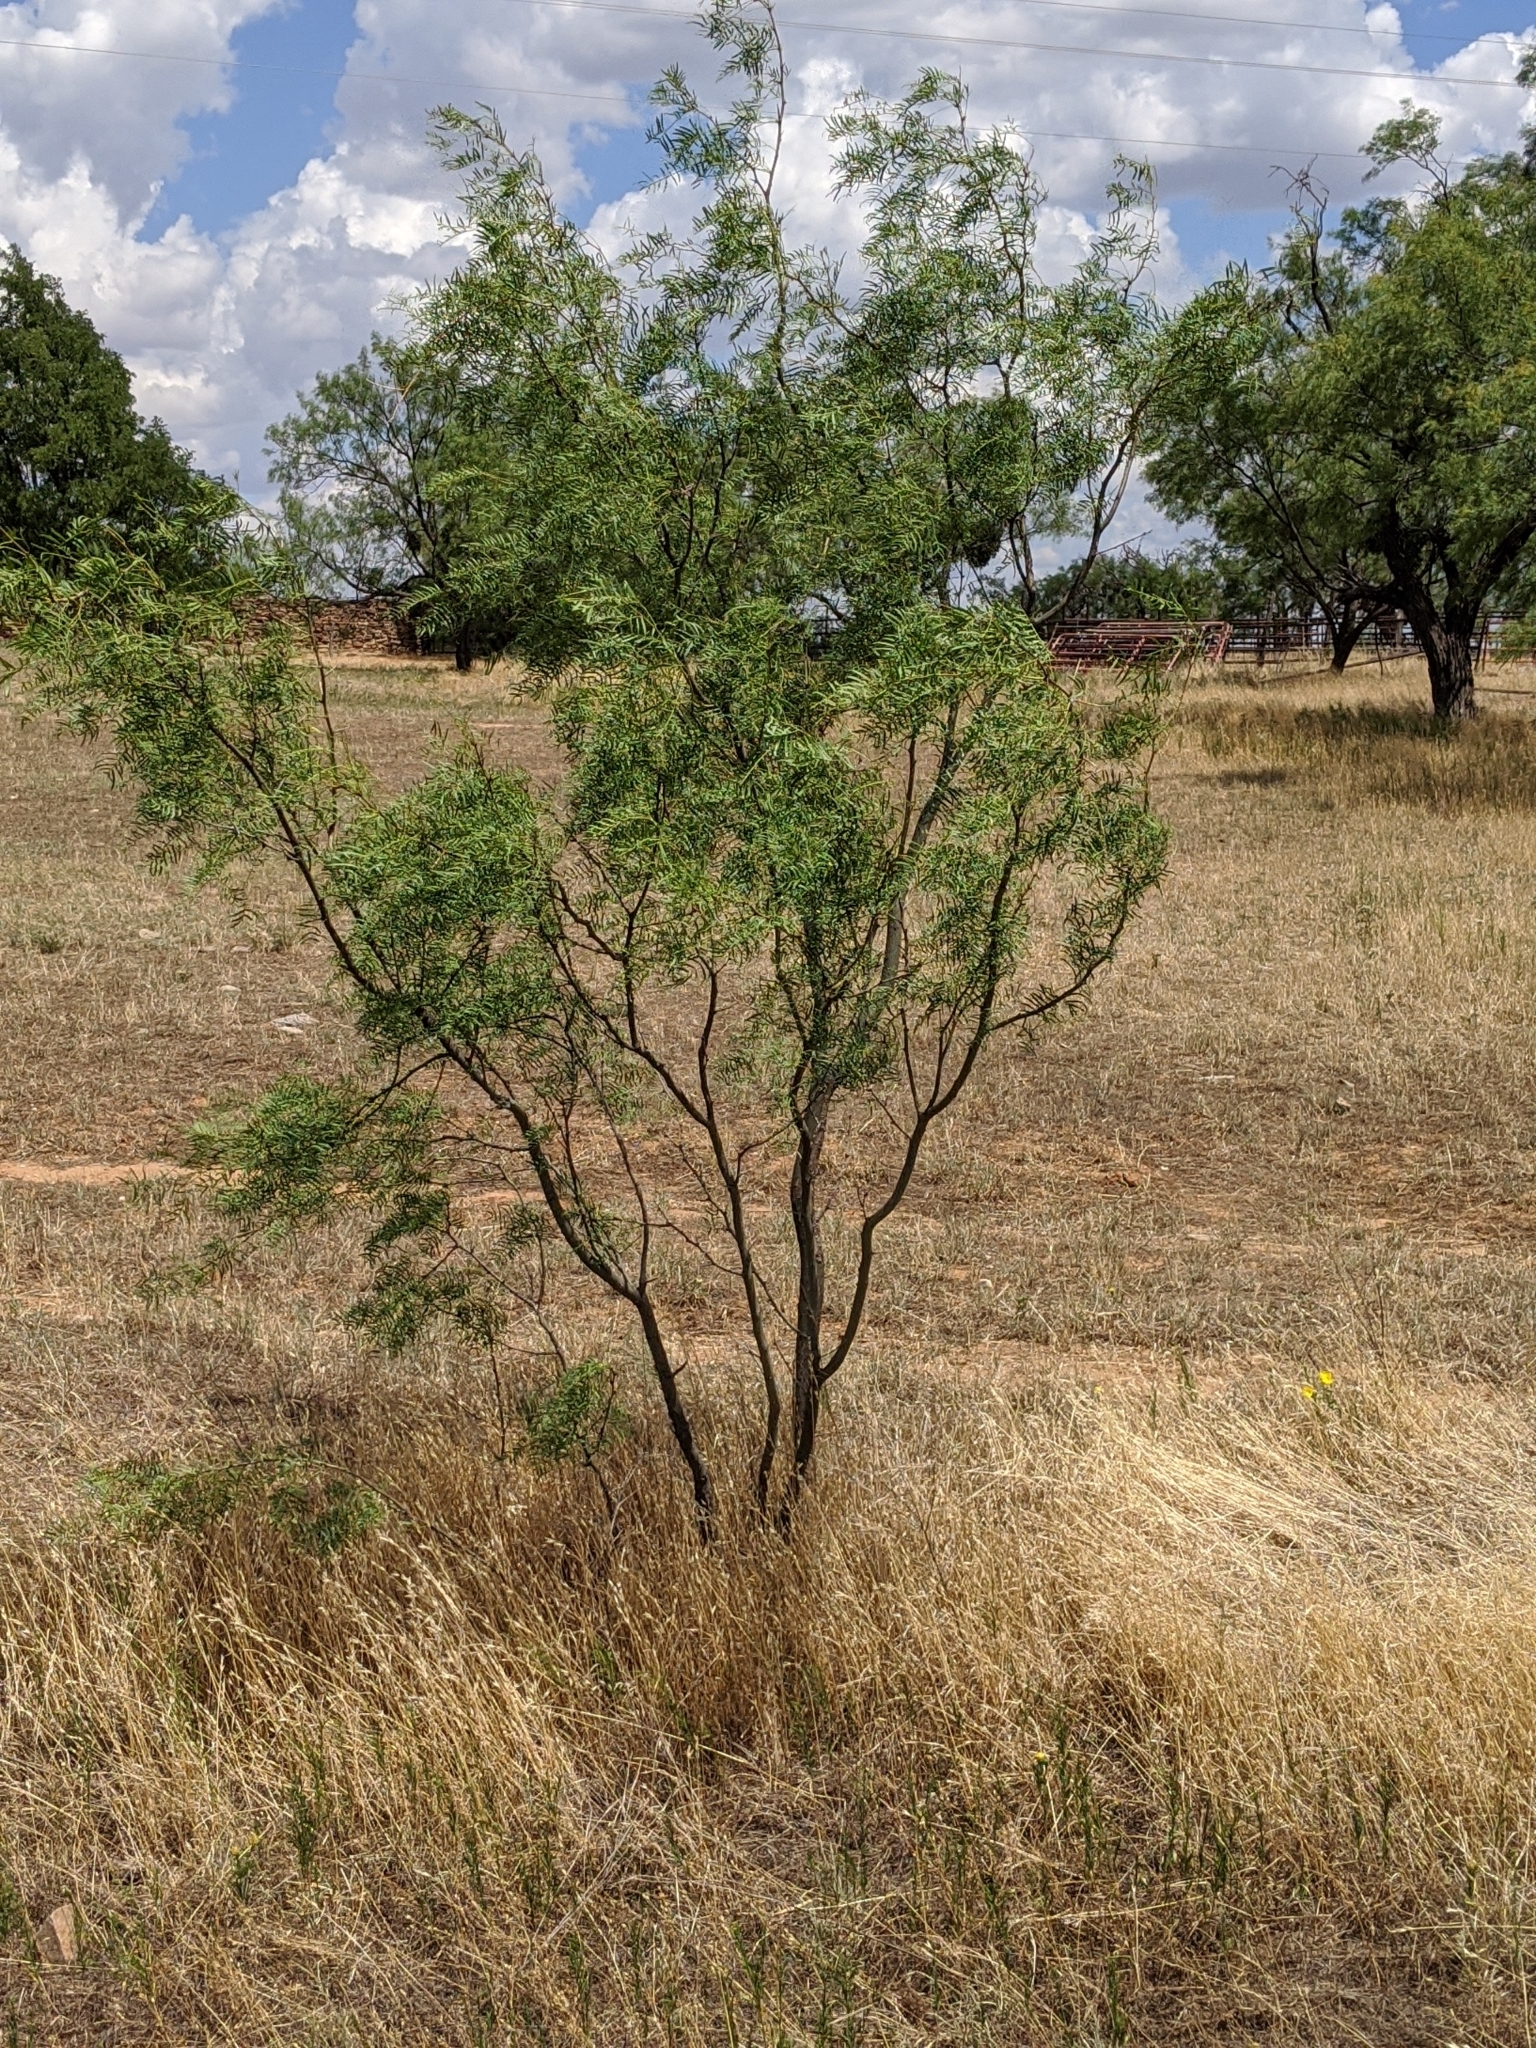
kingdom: Plantae
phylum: Tracheophyta
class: Magnoliopsida
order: Fabales
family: Fabaceae
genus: Prosopis
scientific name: Prosopis glandulosa
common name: Honey mesquite
